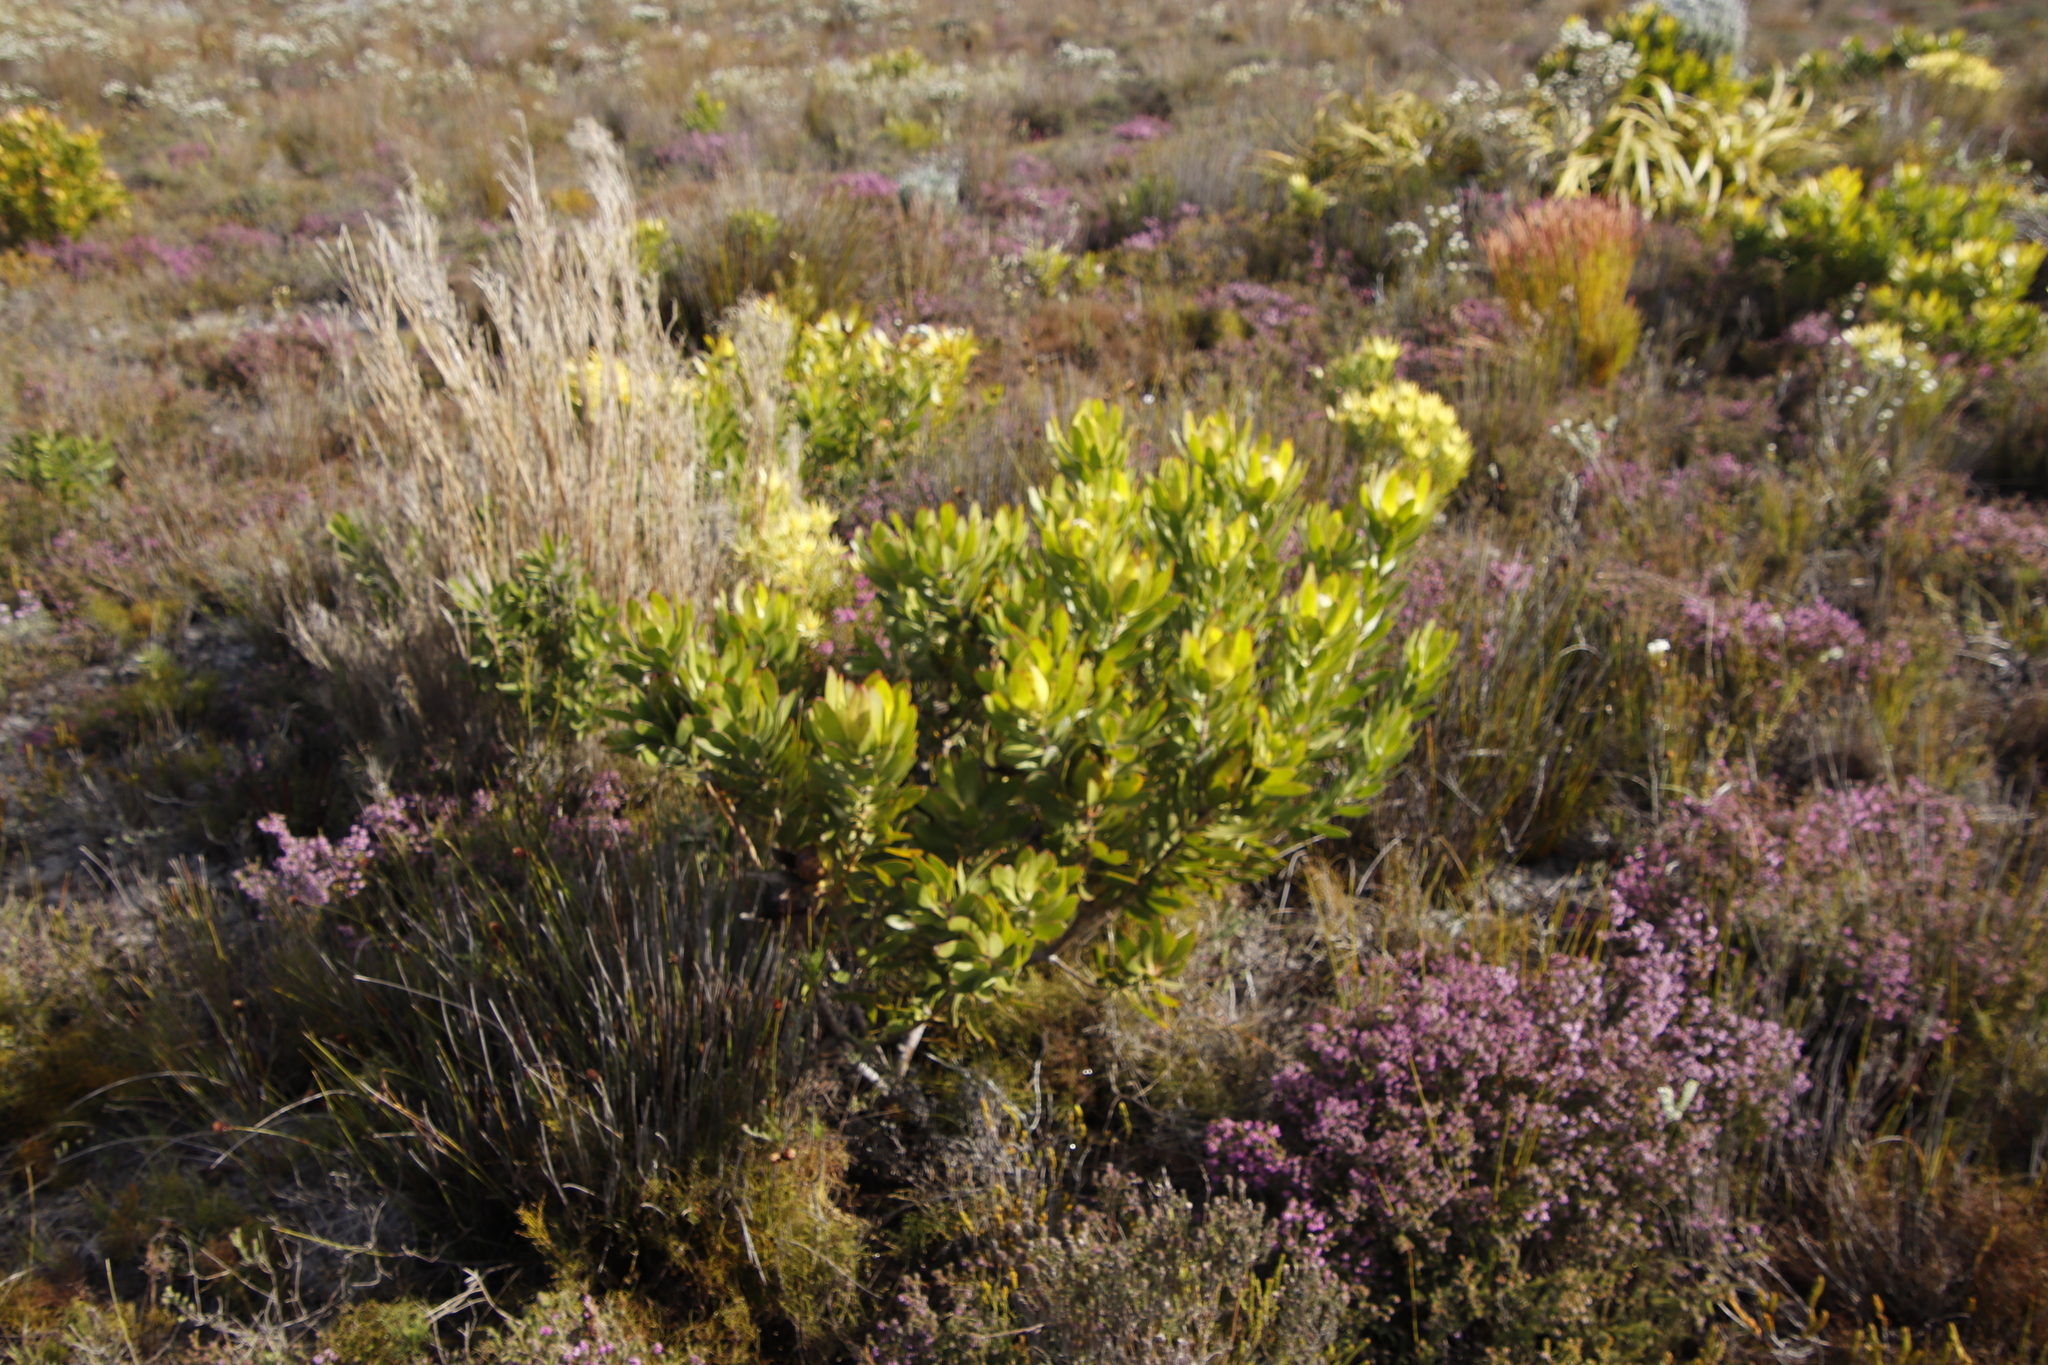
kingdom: Plantae
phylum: Tracheophyta
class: Magnoliopsida
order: Proteales
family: Proteaceae
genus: Leucadendron
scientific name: Leucadendron laureolum
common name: Golden sunshinebush
